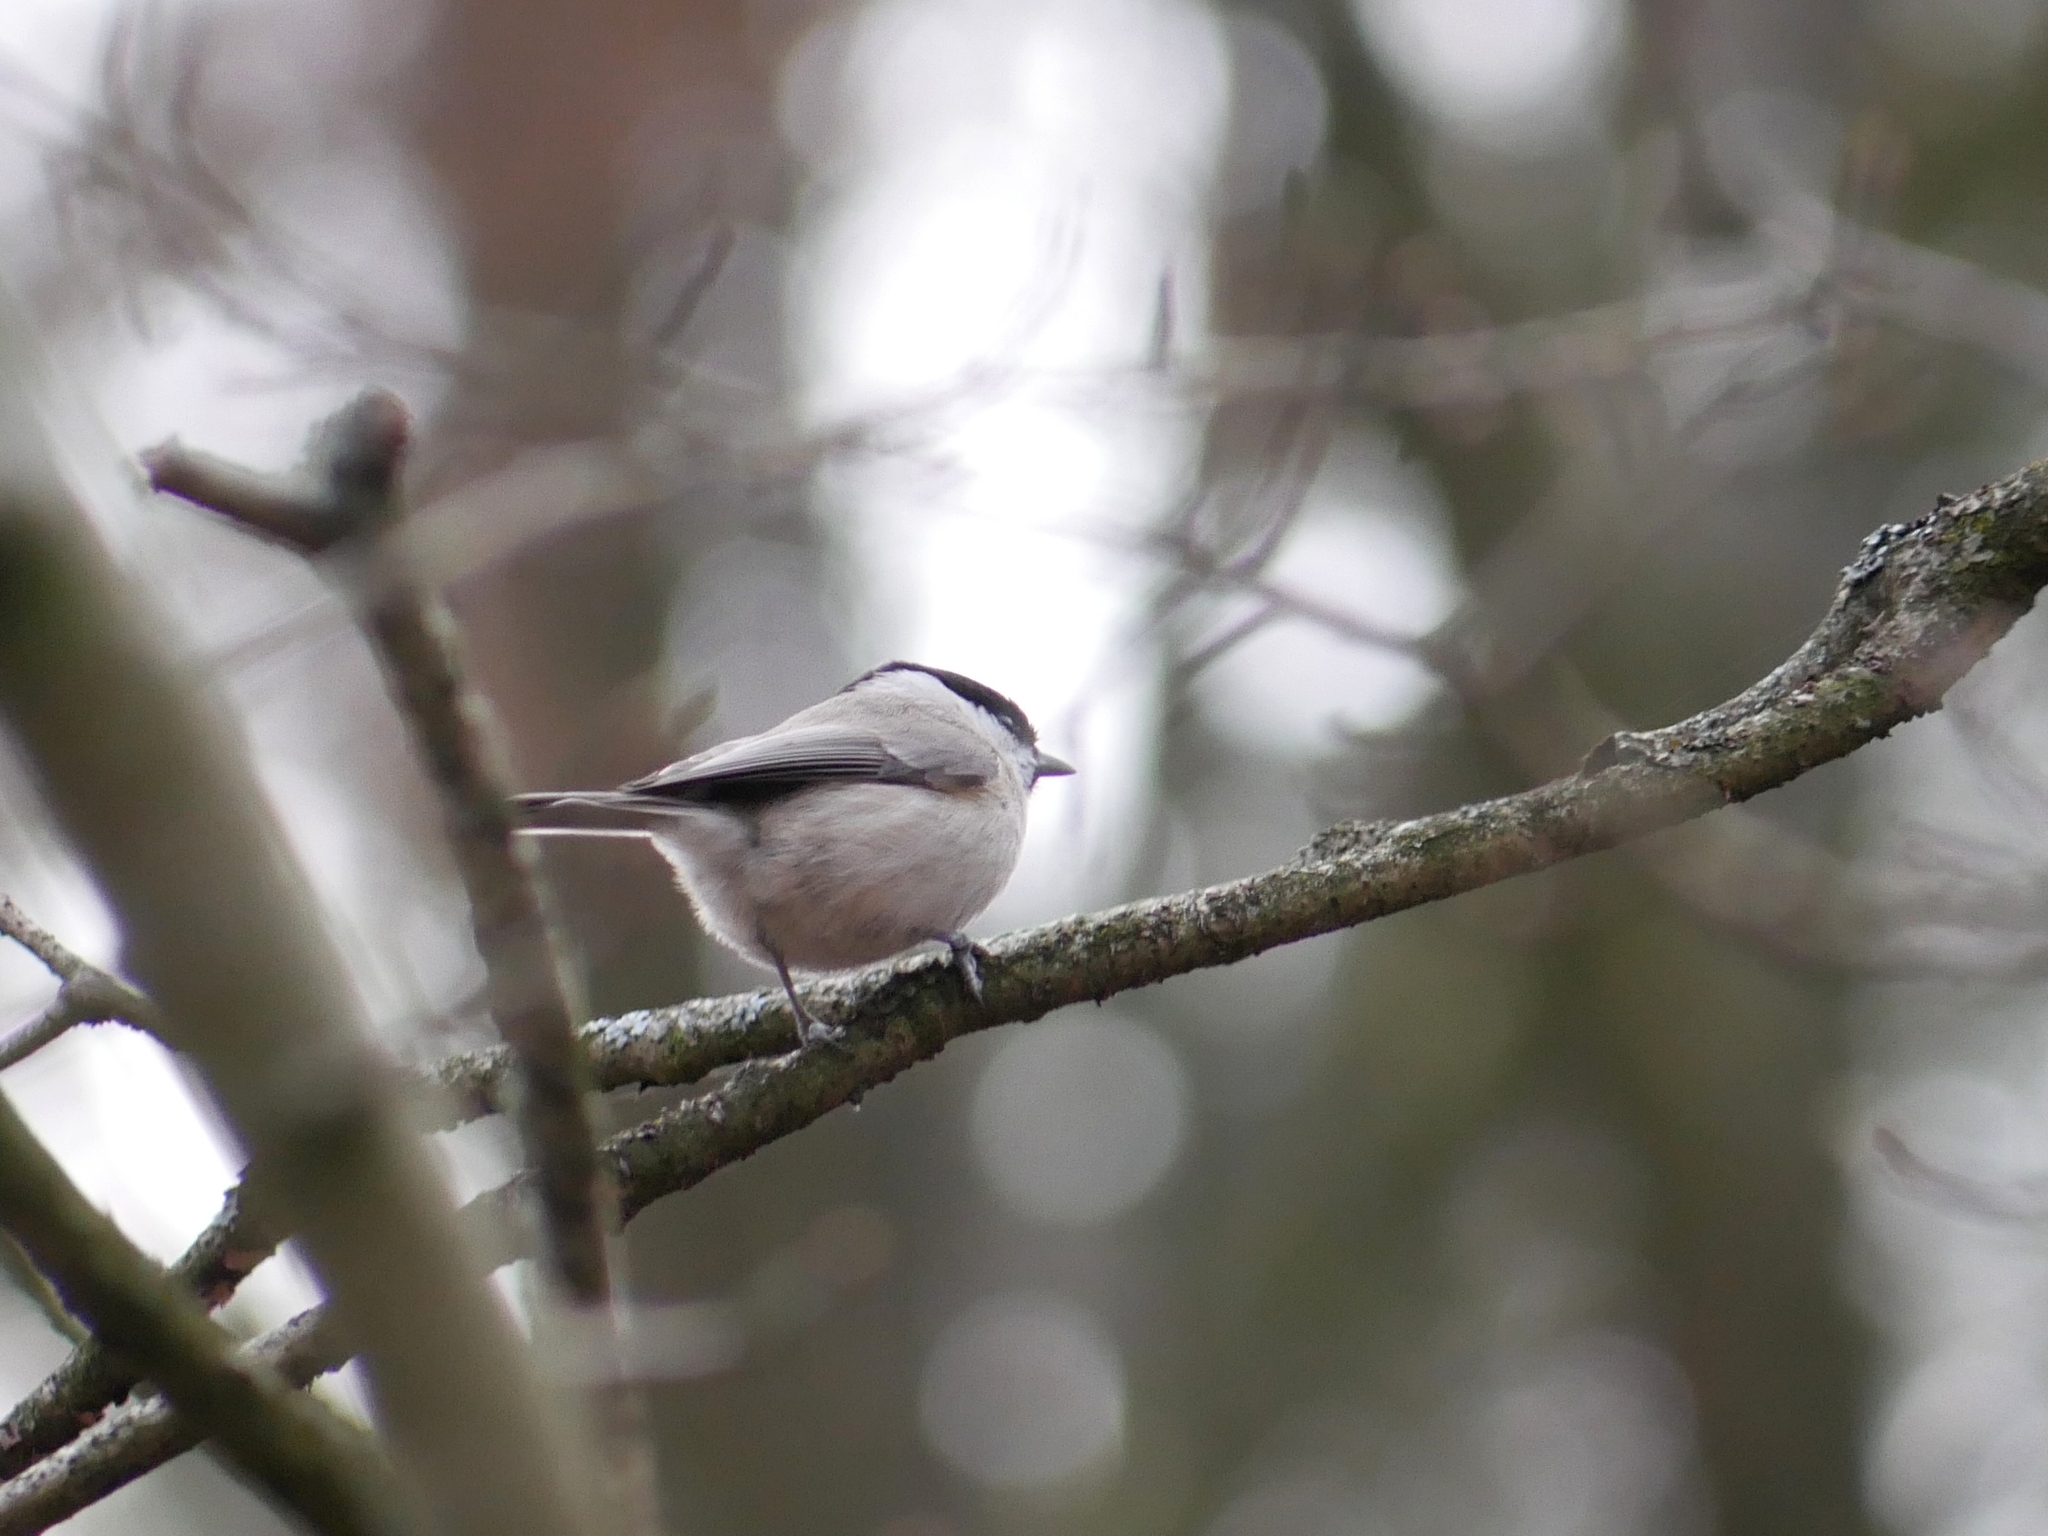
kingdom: Animalia
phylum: Chordata
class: Aves
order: Passeriformes
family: Paridae
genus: Poecile
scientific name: Poecile palustris
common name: Marsh tit
